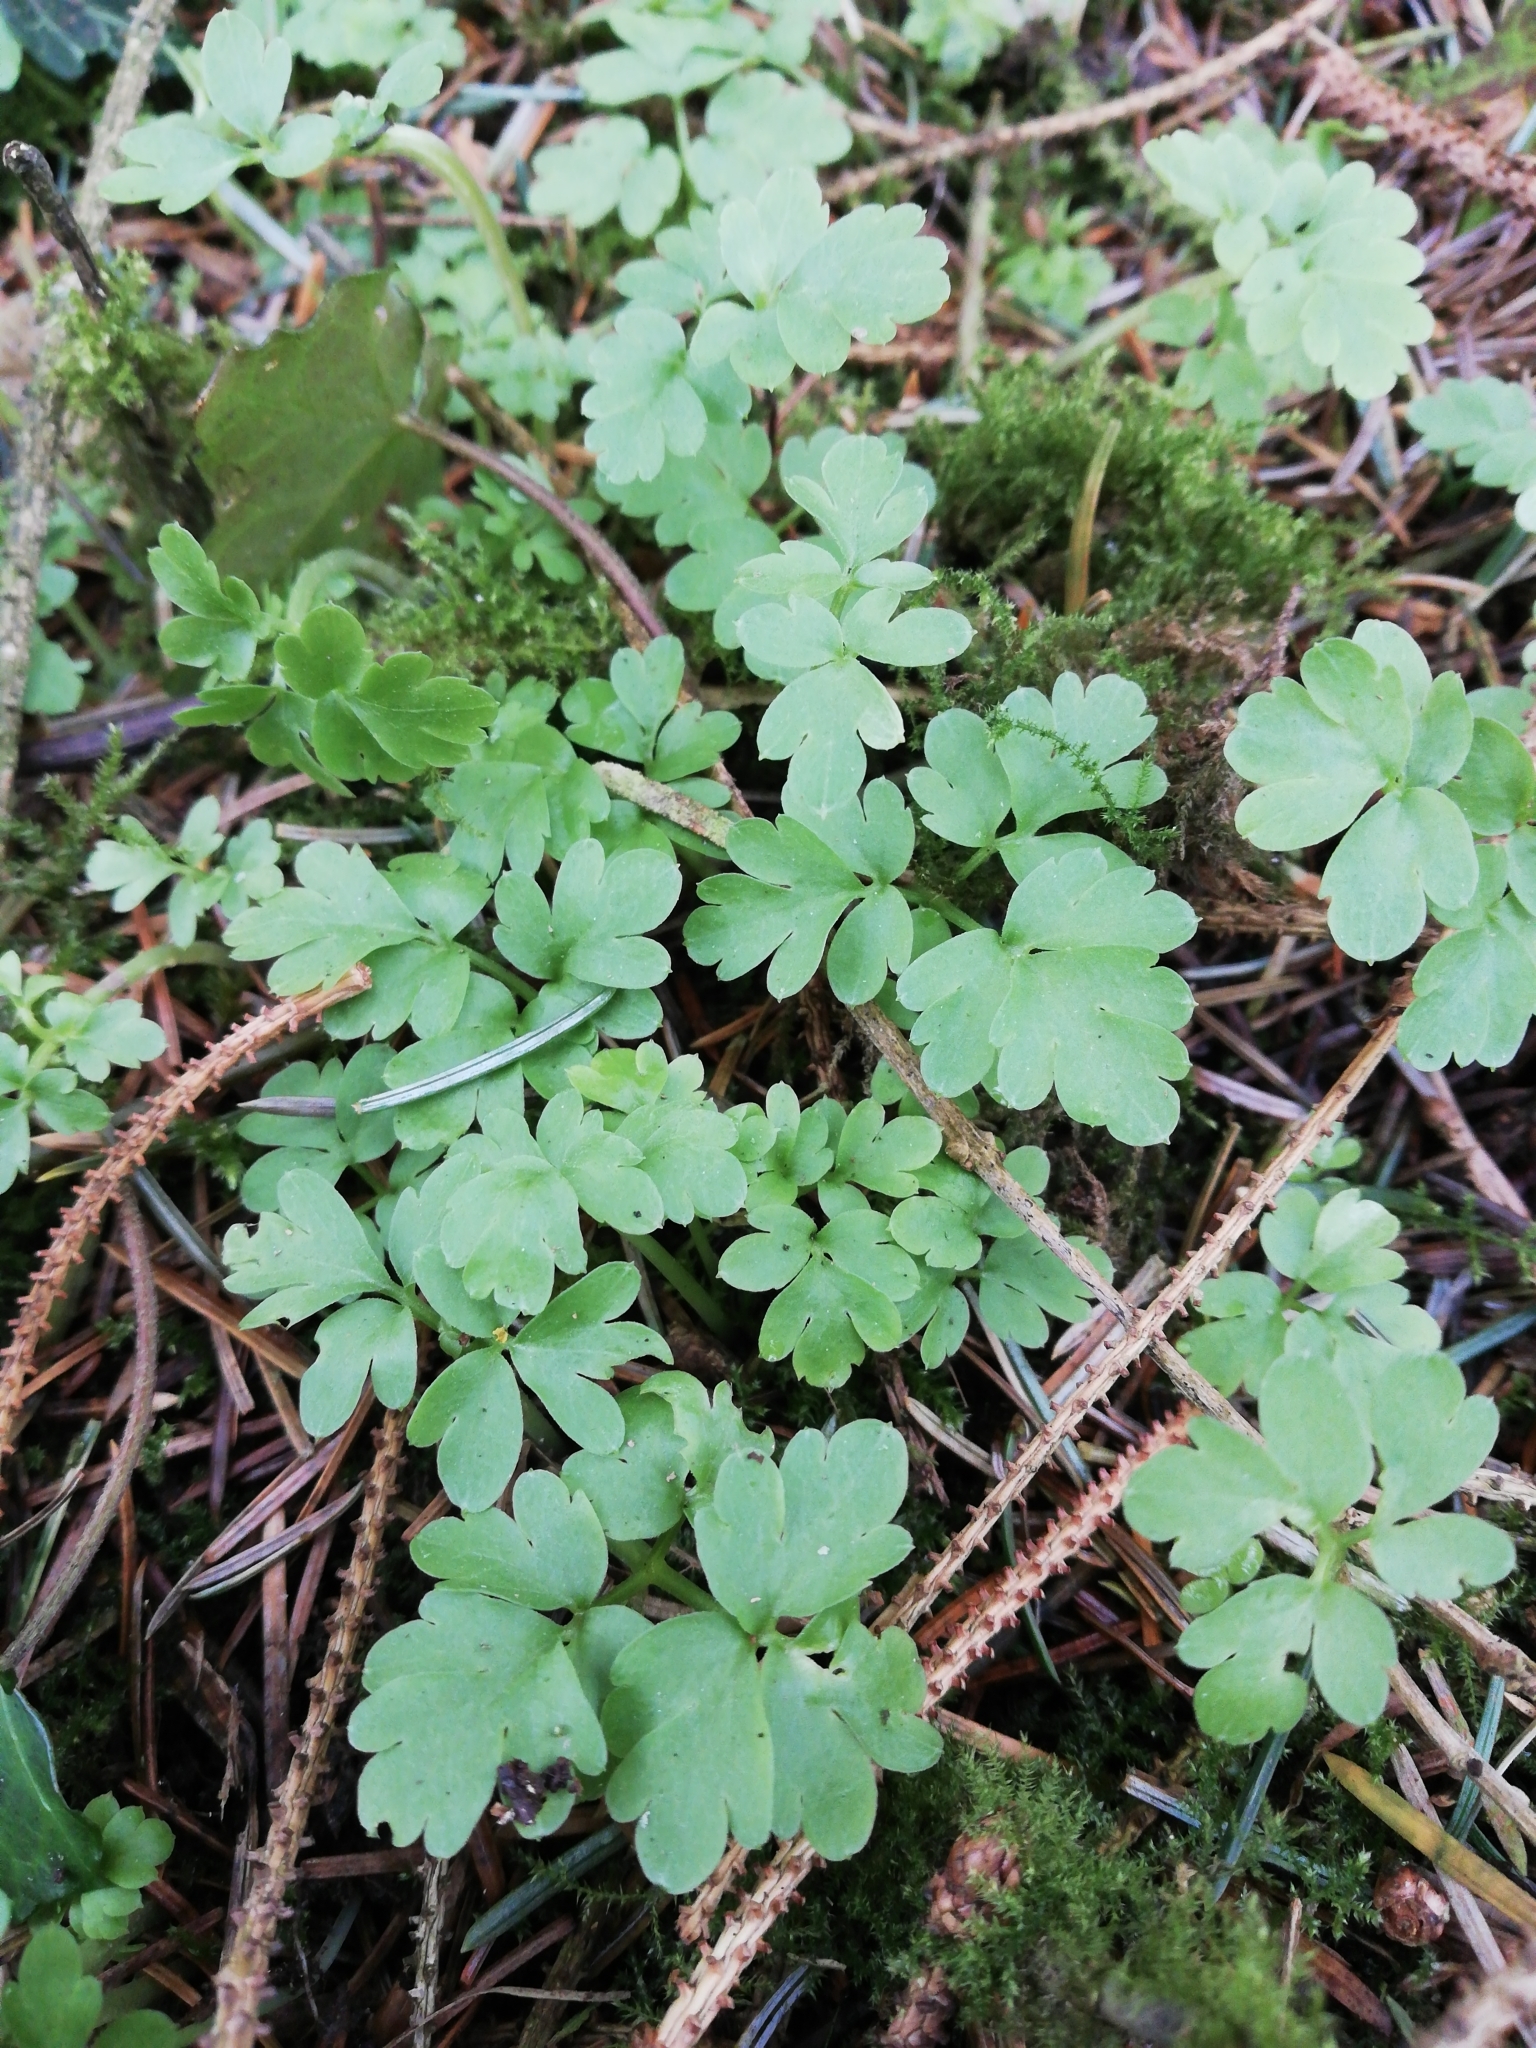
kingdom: Plantae
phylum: Tracheophyta
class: Magnoliopsida
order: Dipsacales
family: Viburnaceae
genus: Adoxa
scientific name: Adoxa moschatellina
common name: Moschatel
